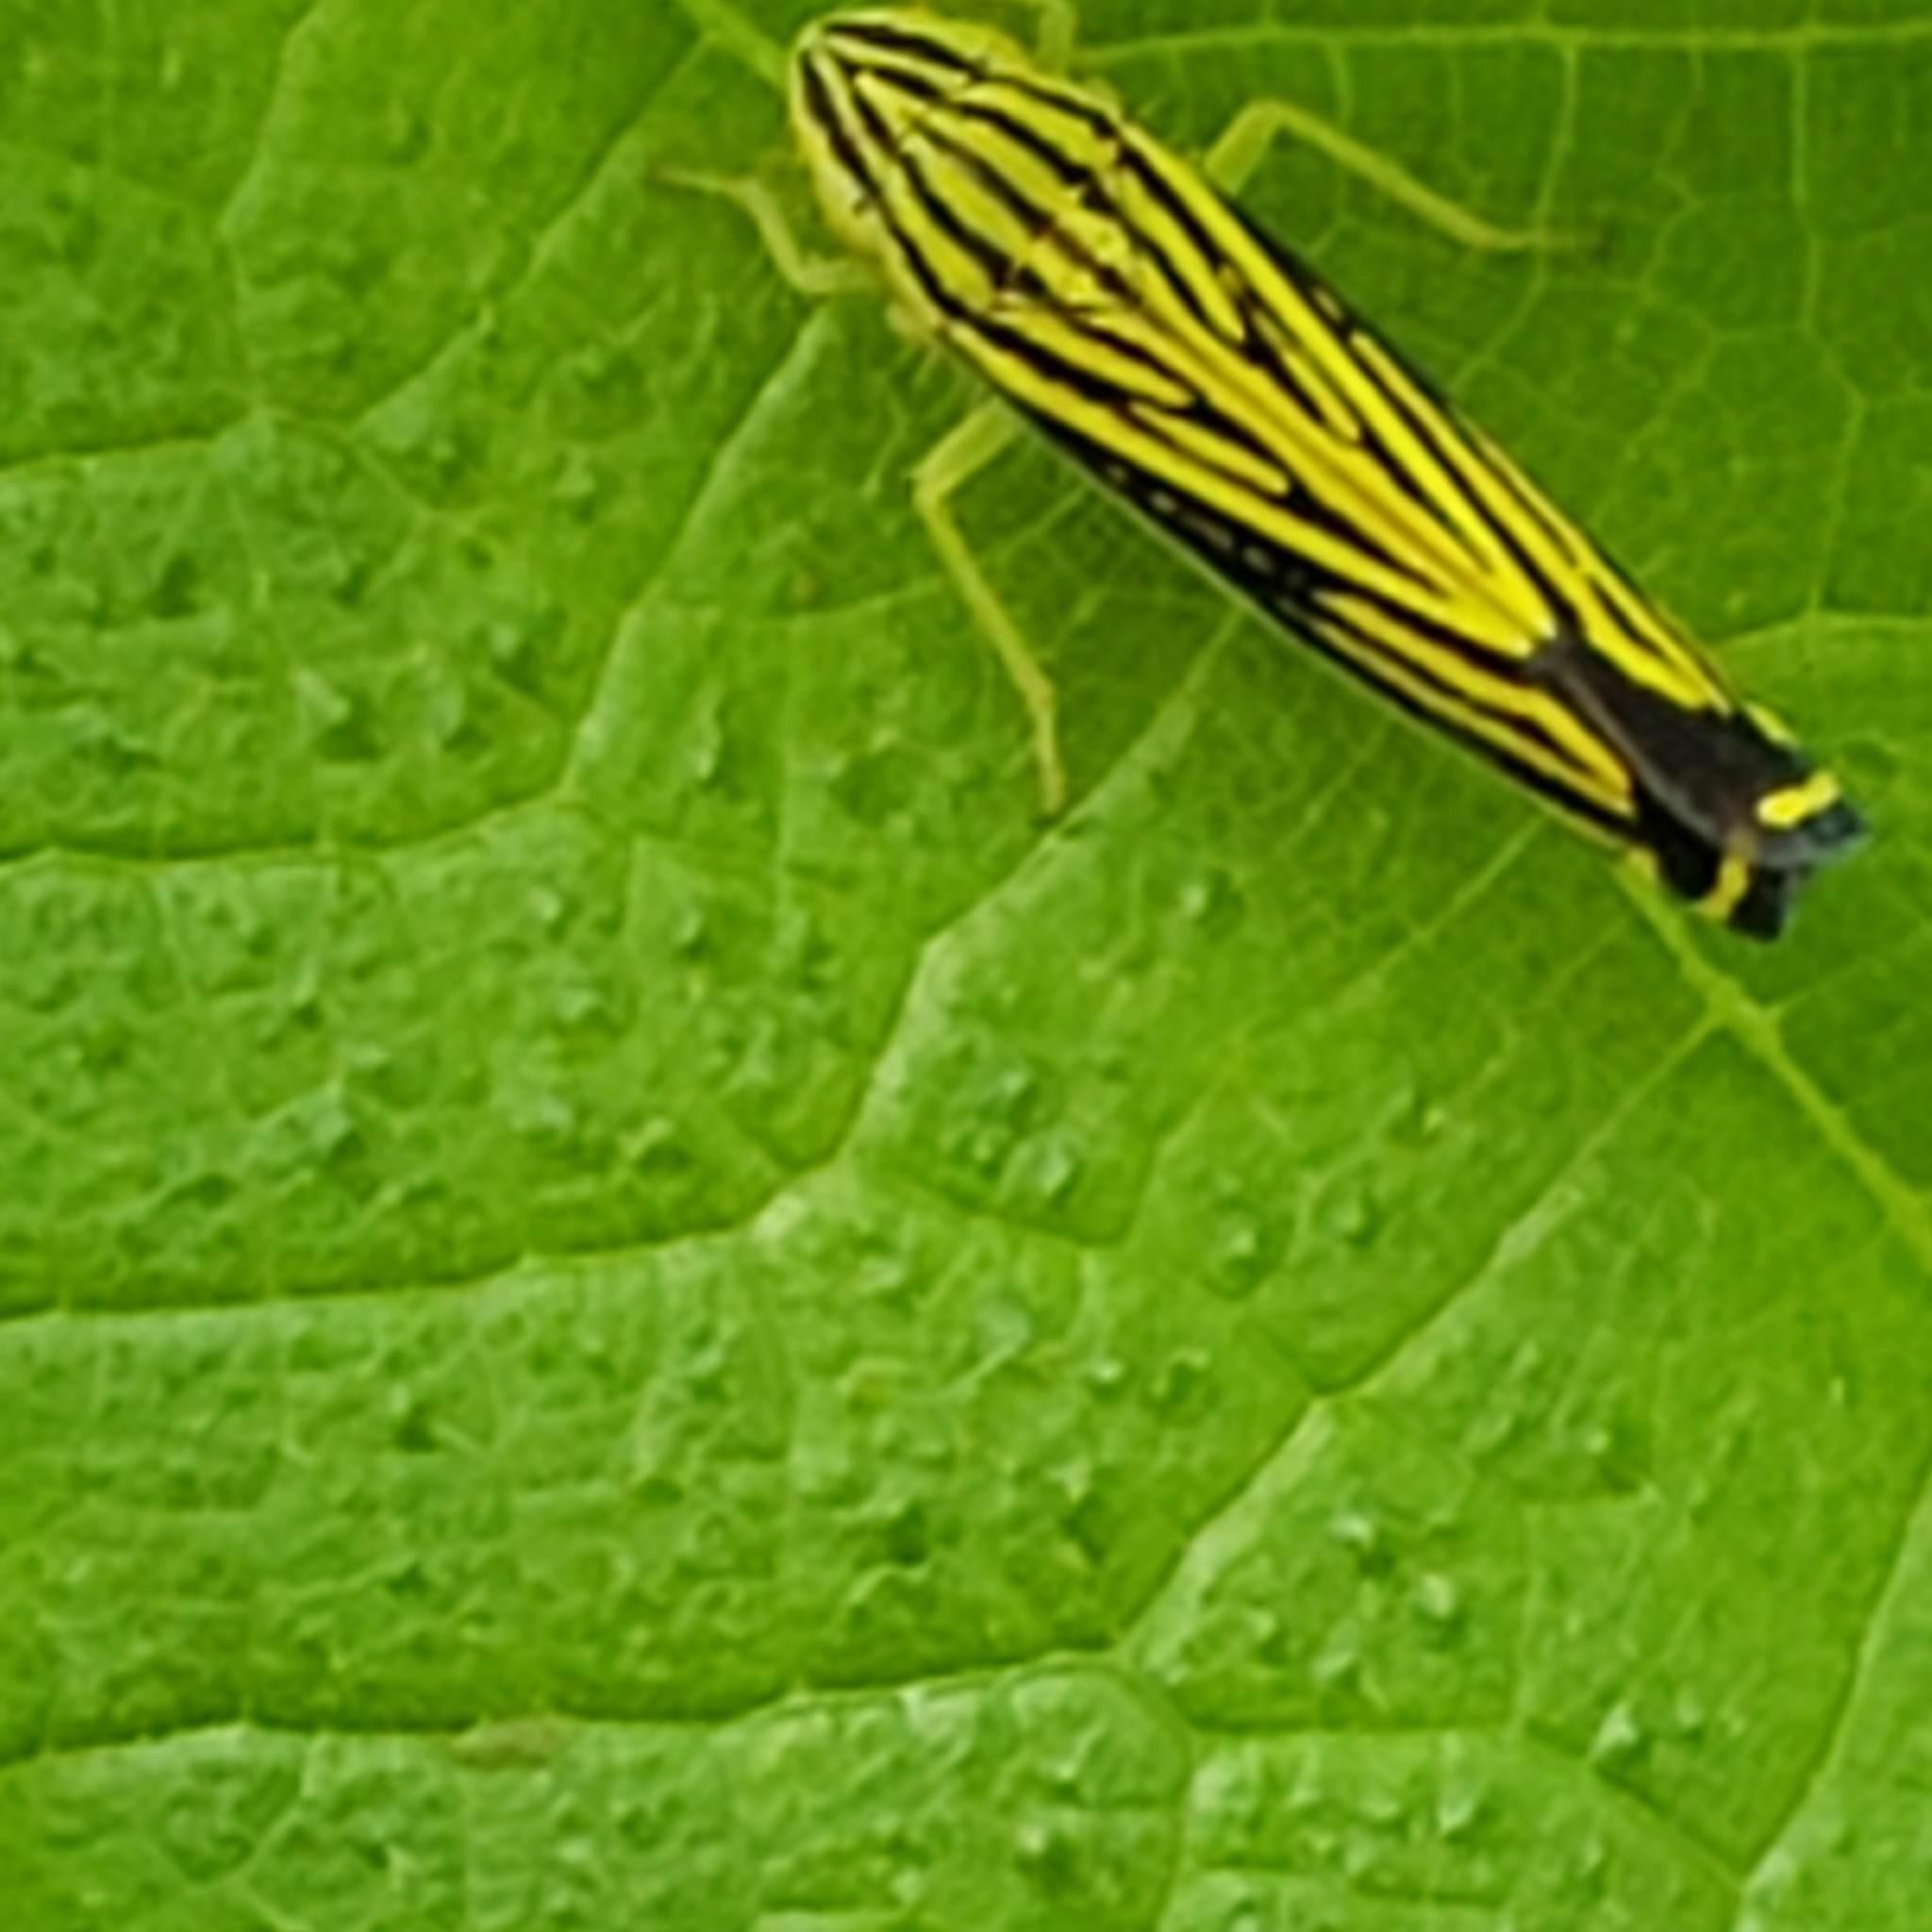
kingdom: Animalia
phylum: Arthropoda
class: Insecta
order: Hemiptera
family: Cicadellidae
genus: Sibovia
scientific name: Sibovia occatoria
